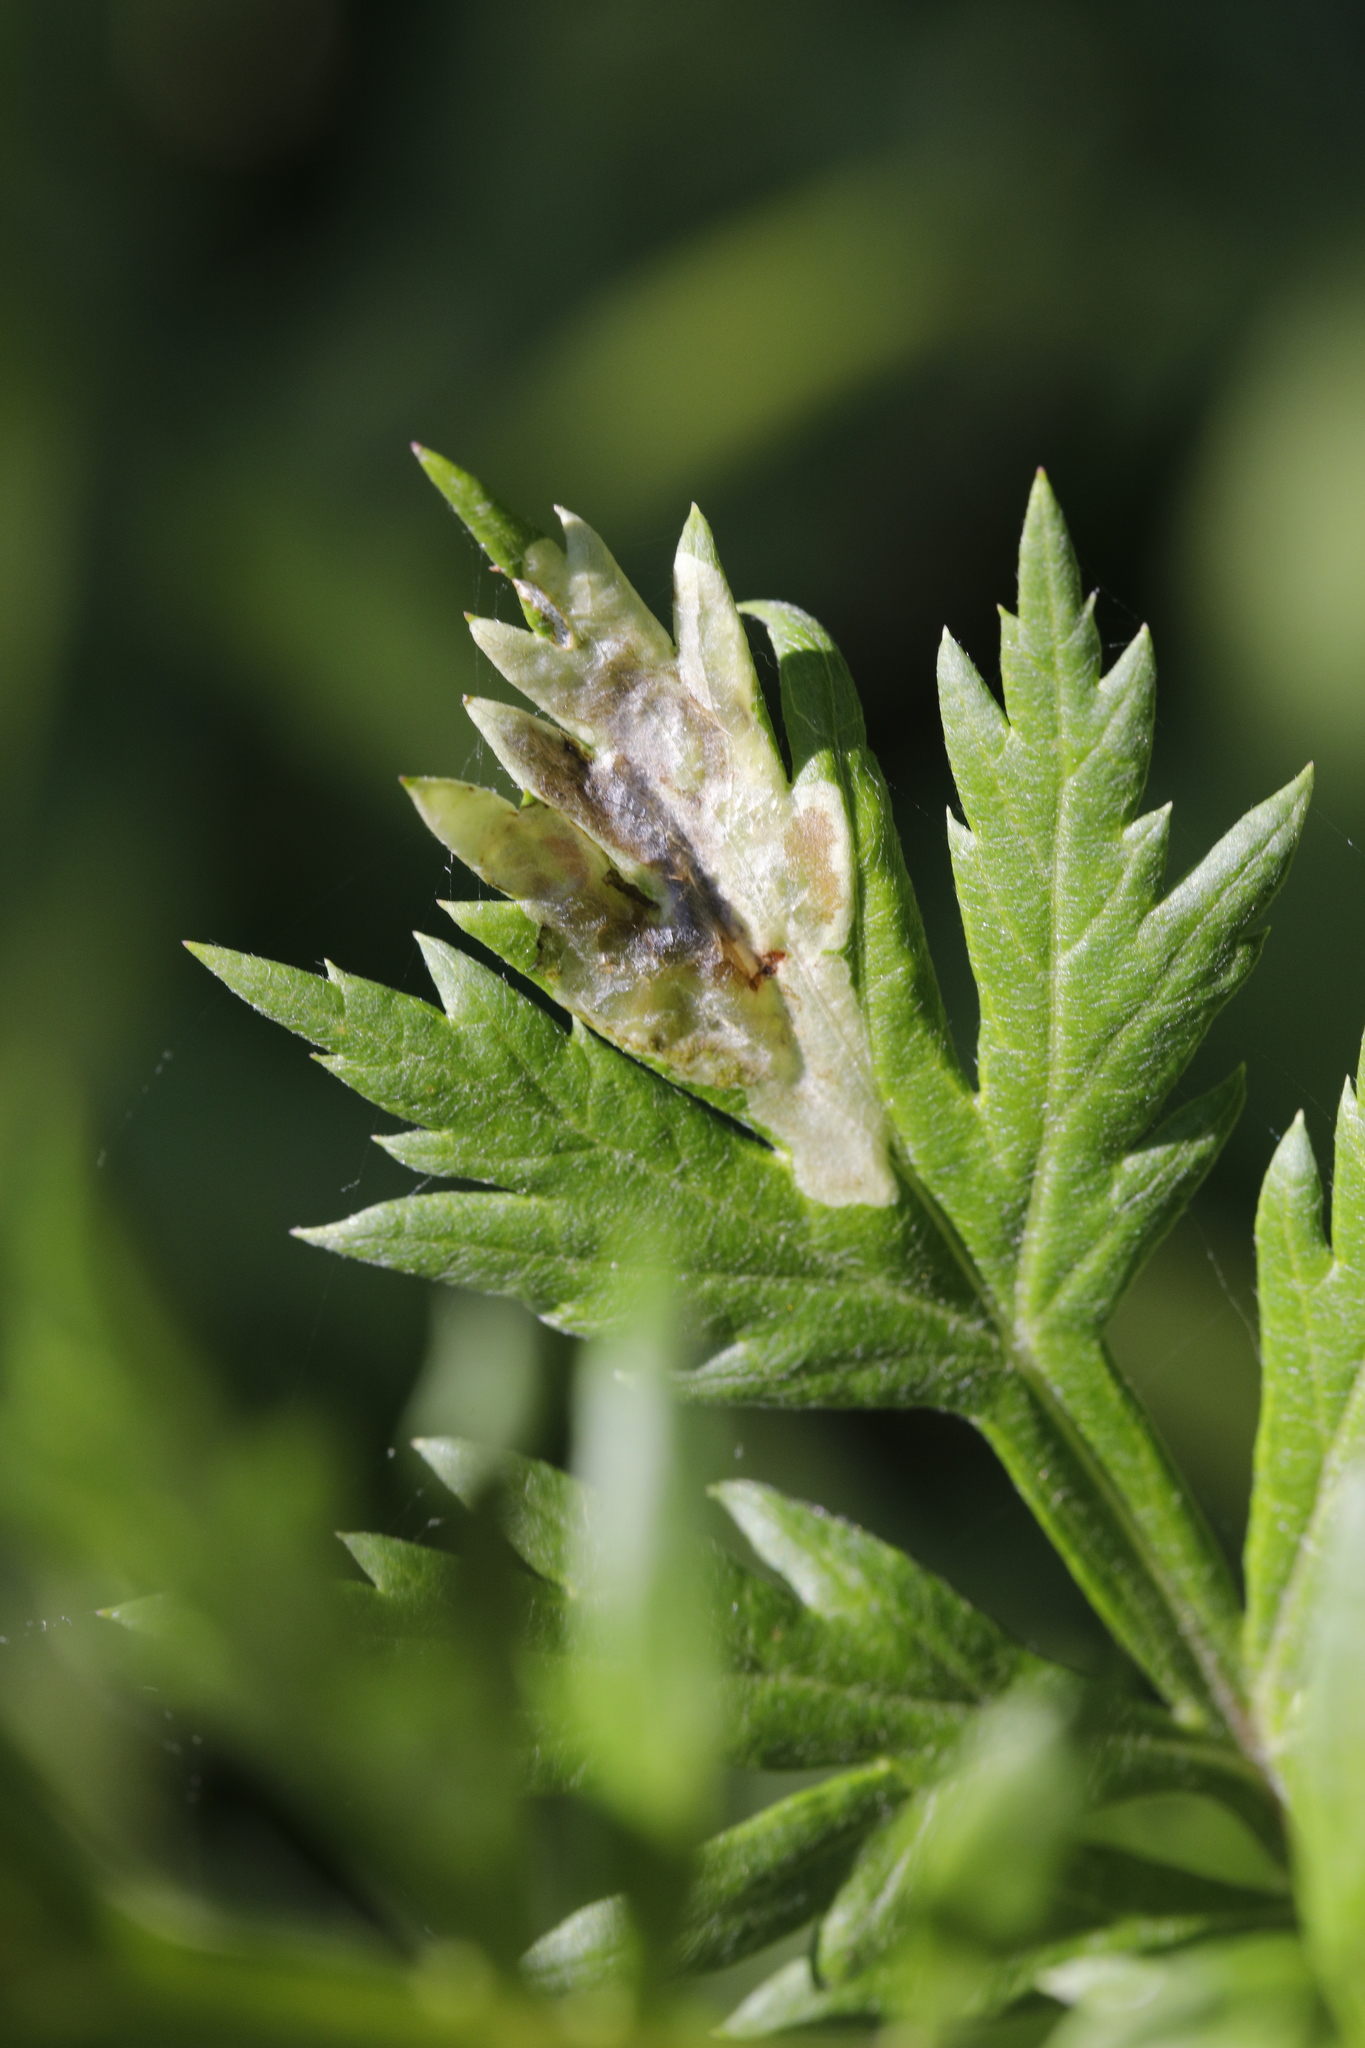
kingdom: Plantae
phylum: Tracheophyta
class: Magnoliopsida
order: Asterales
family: Asteraceae
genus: Artemisia
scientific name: Artemisia vulgaris
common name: Mugwort
